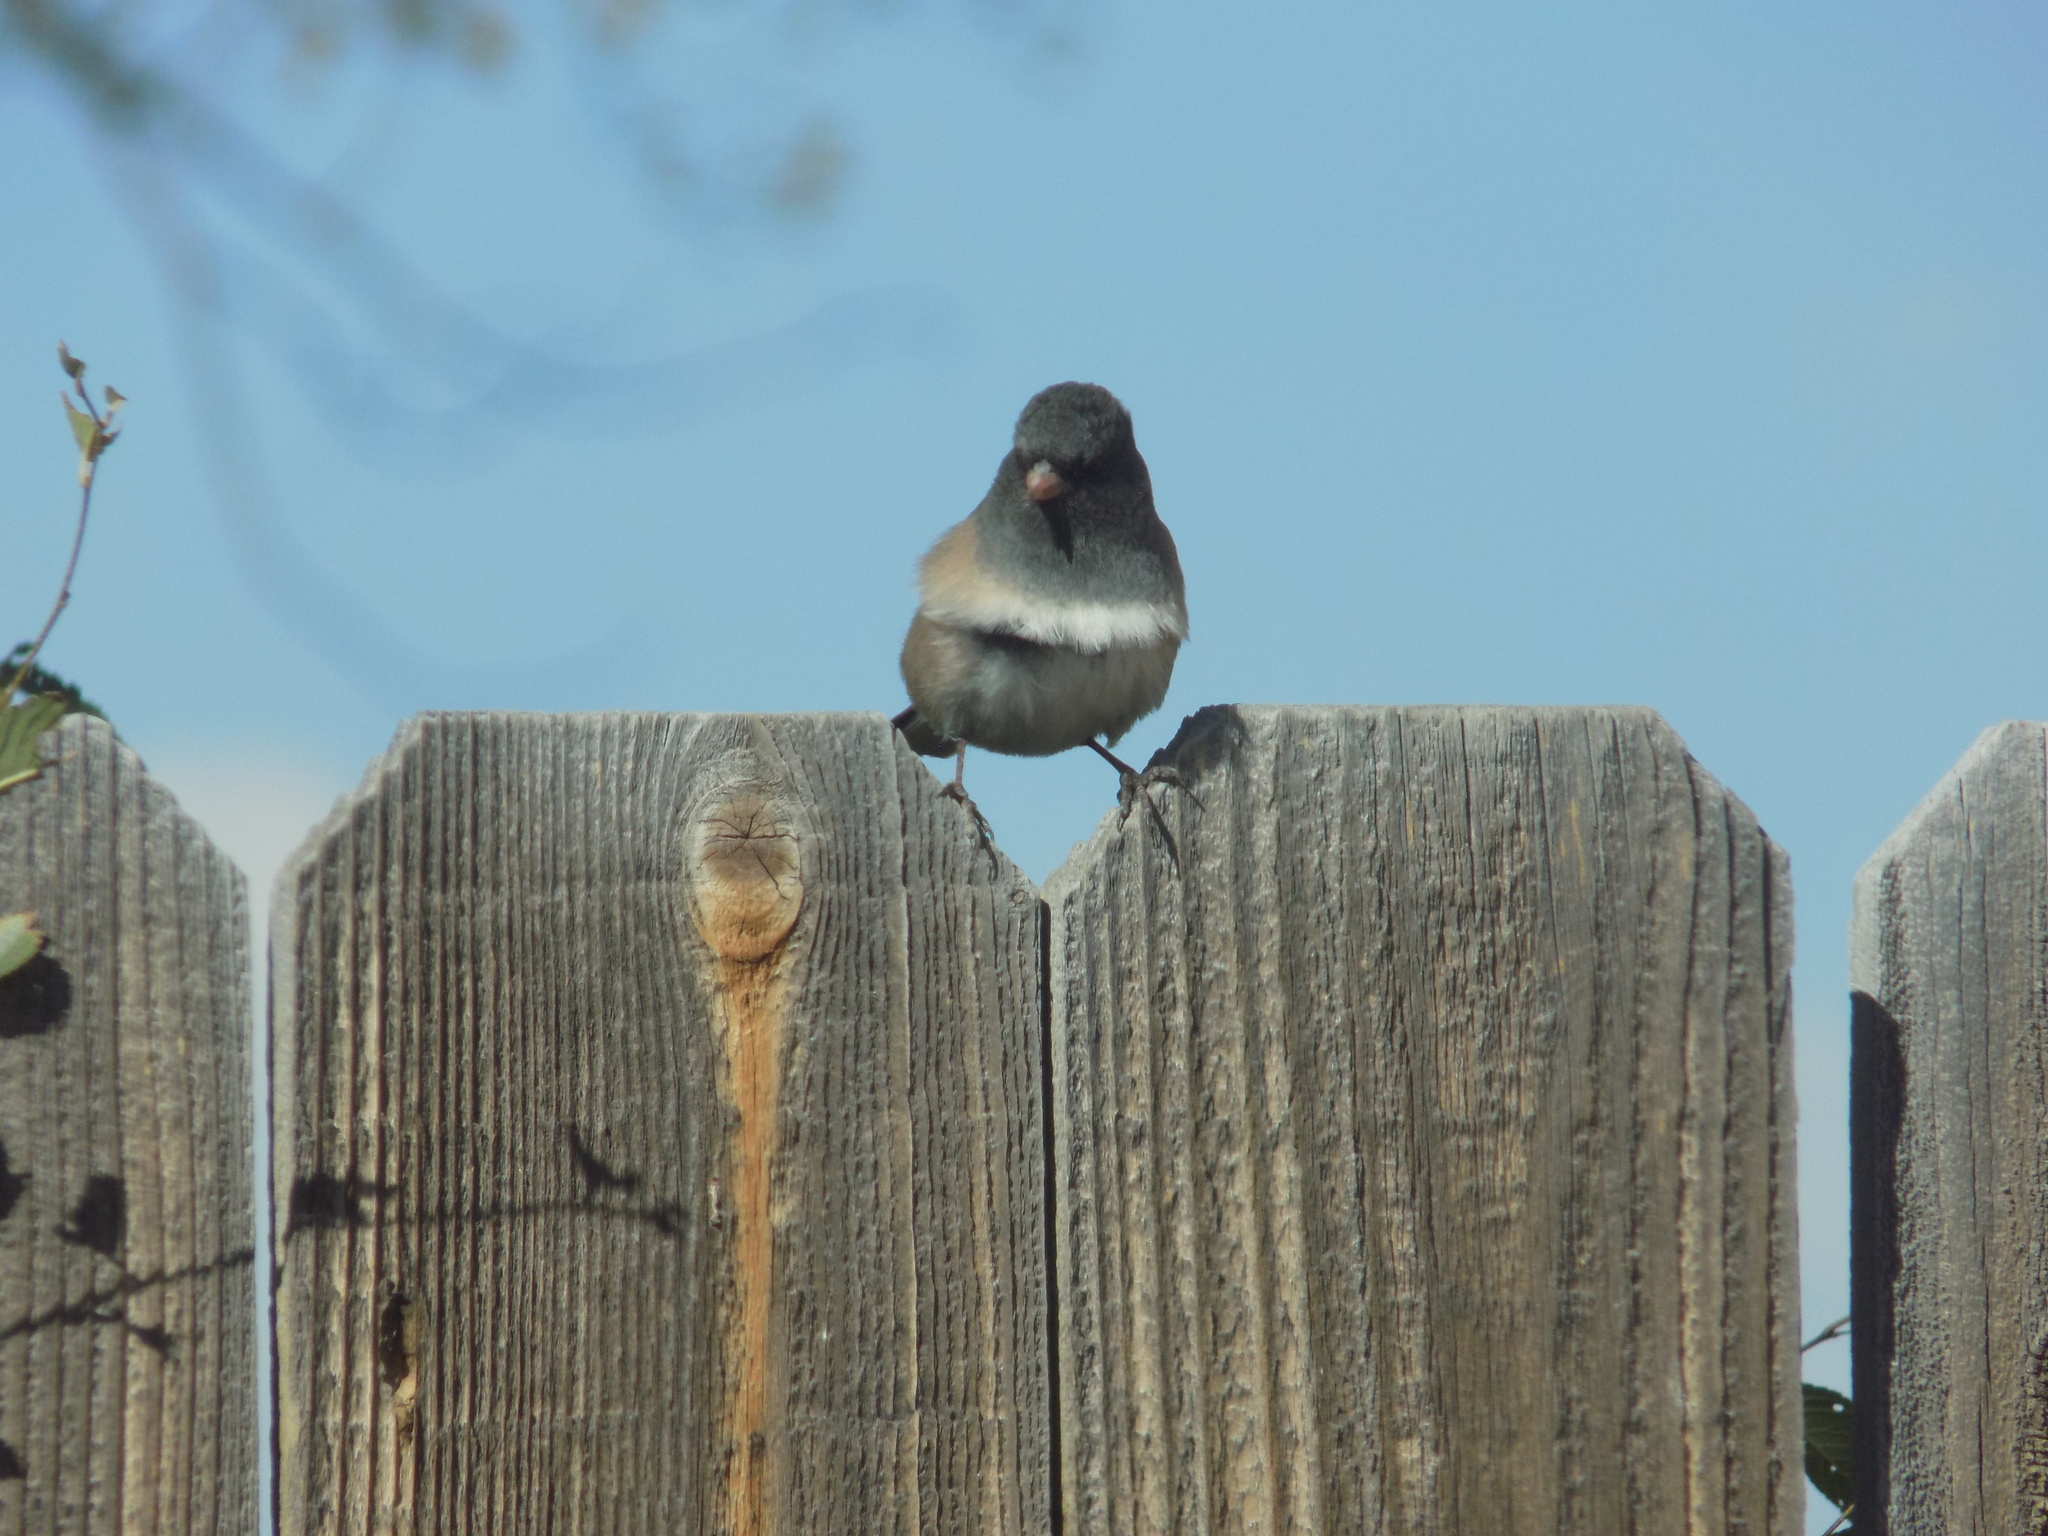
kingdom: Animalia
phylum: Chordata
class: Aves
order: Passeriformes
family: Passerellidae
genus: Junco
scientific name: Junco hyemalis
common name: Dark-eyed junco
